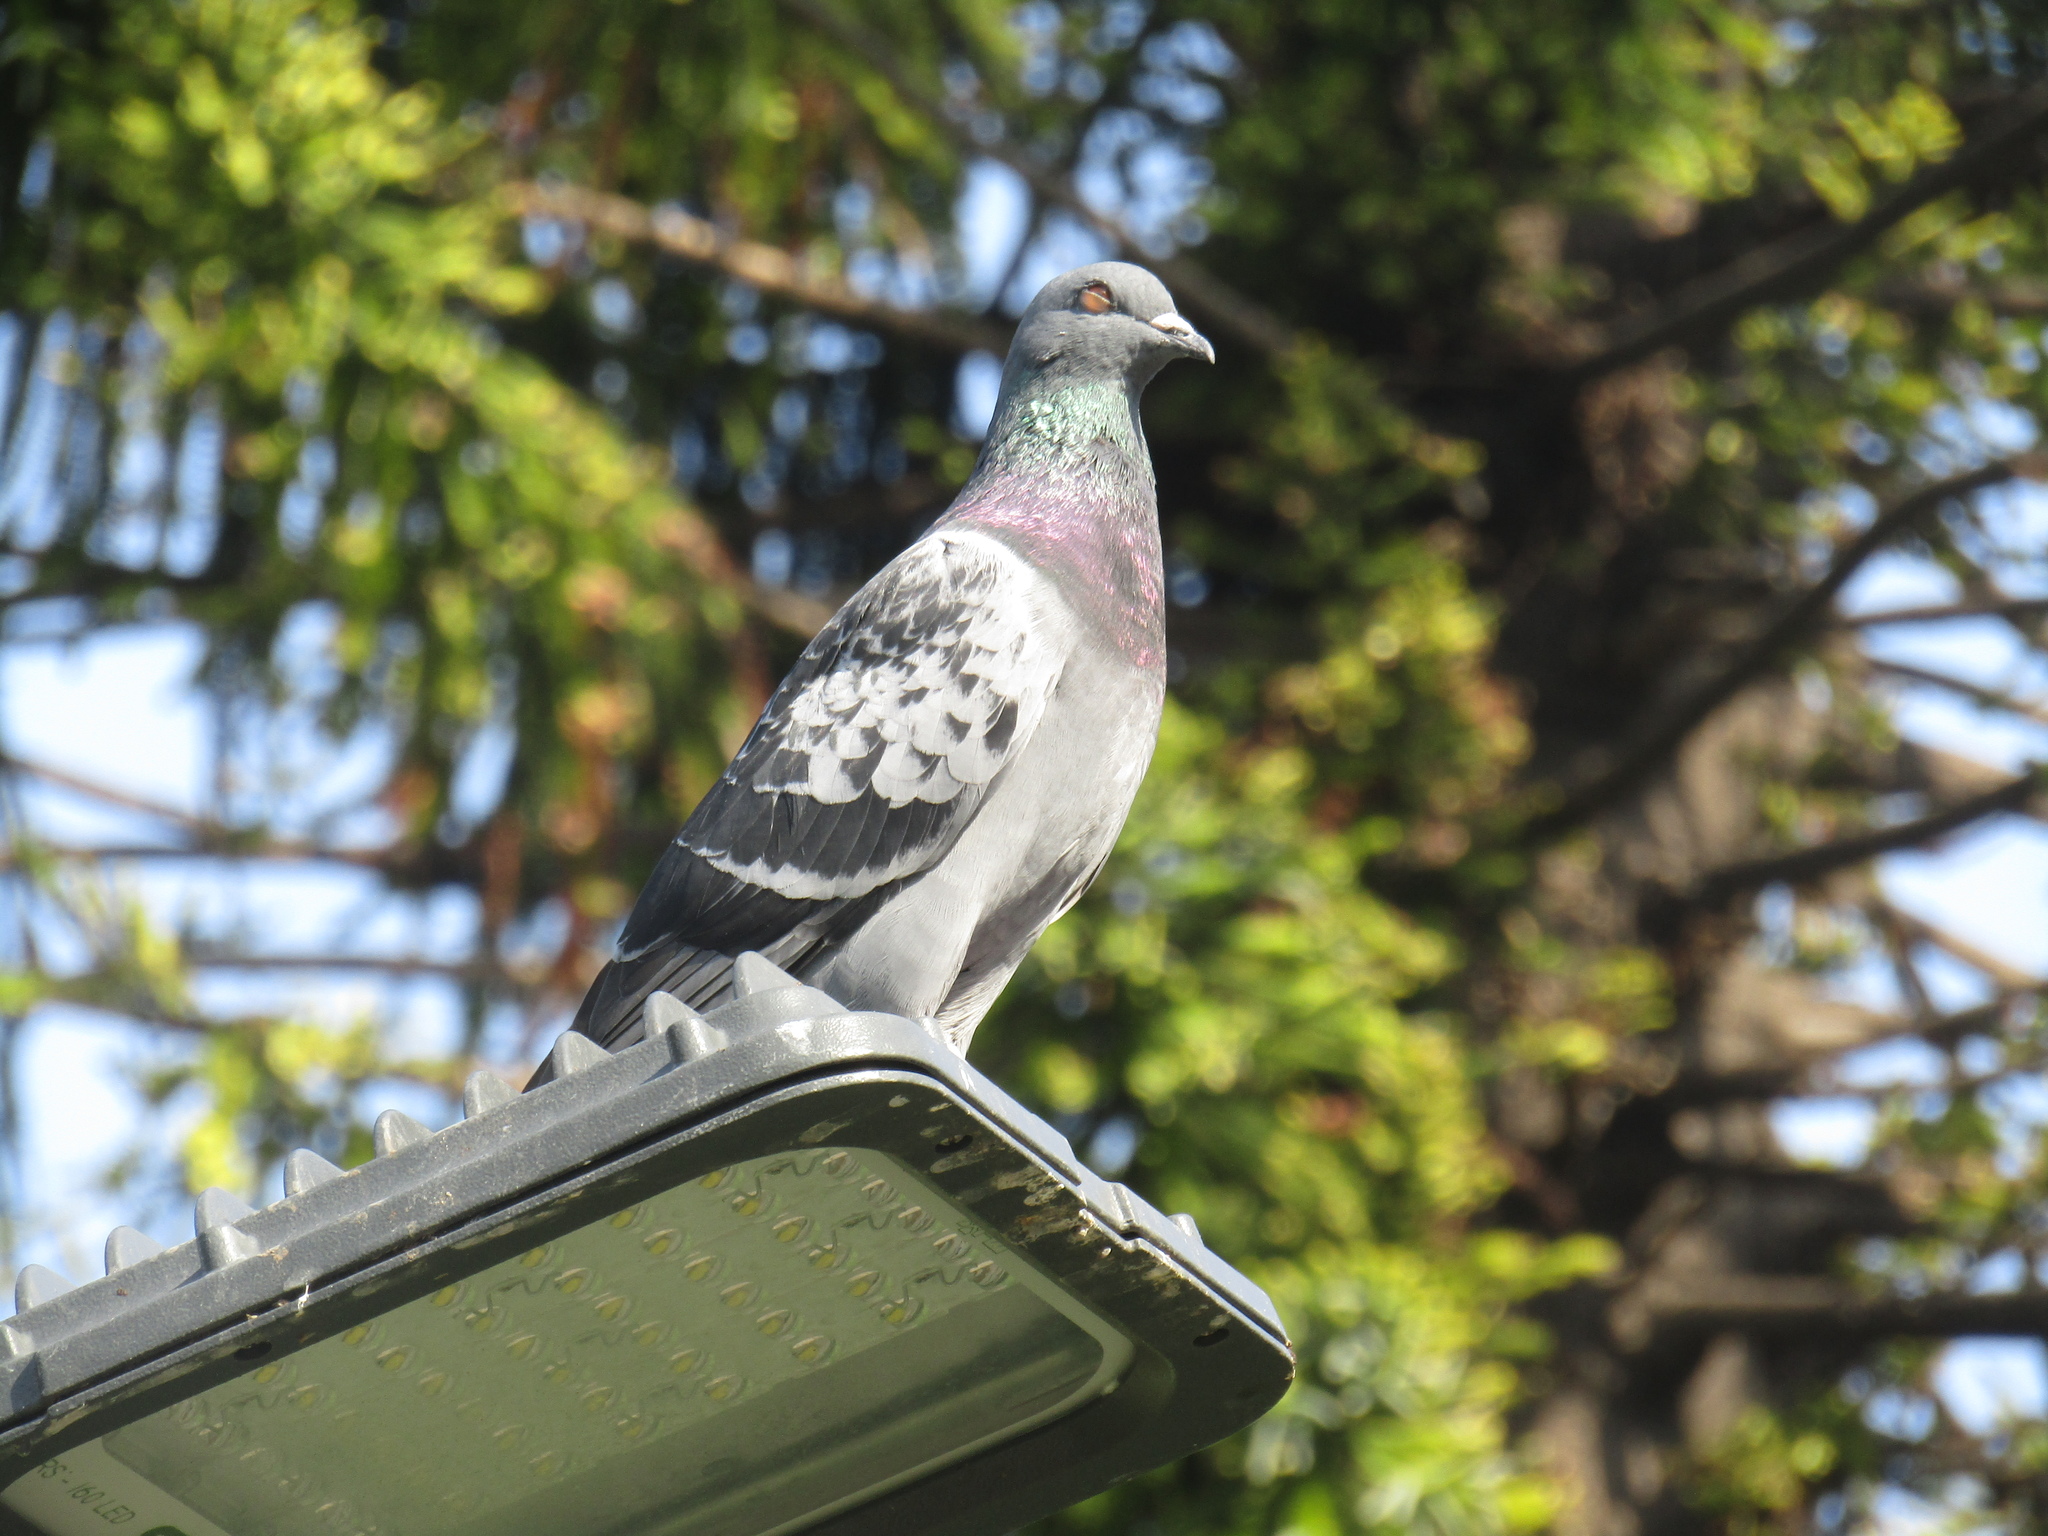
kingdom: Animalia
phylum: Chordata
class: Aves
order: Columbiformes
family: Columbidae
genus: Columba
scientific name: Columba livia
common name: Rock pigeon
